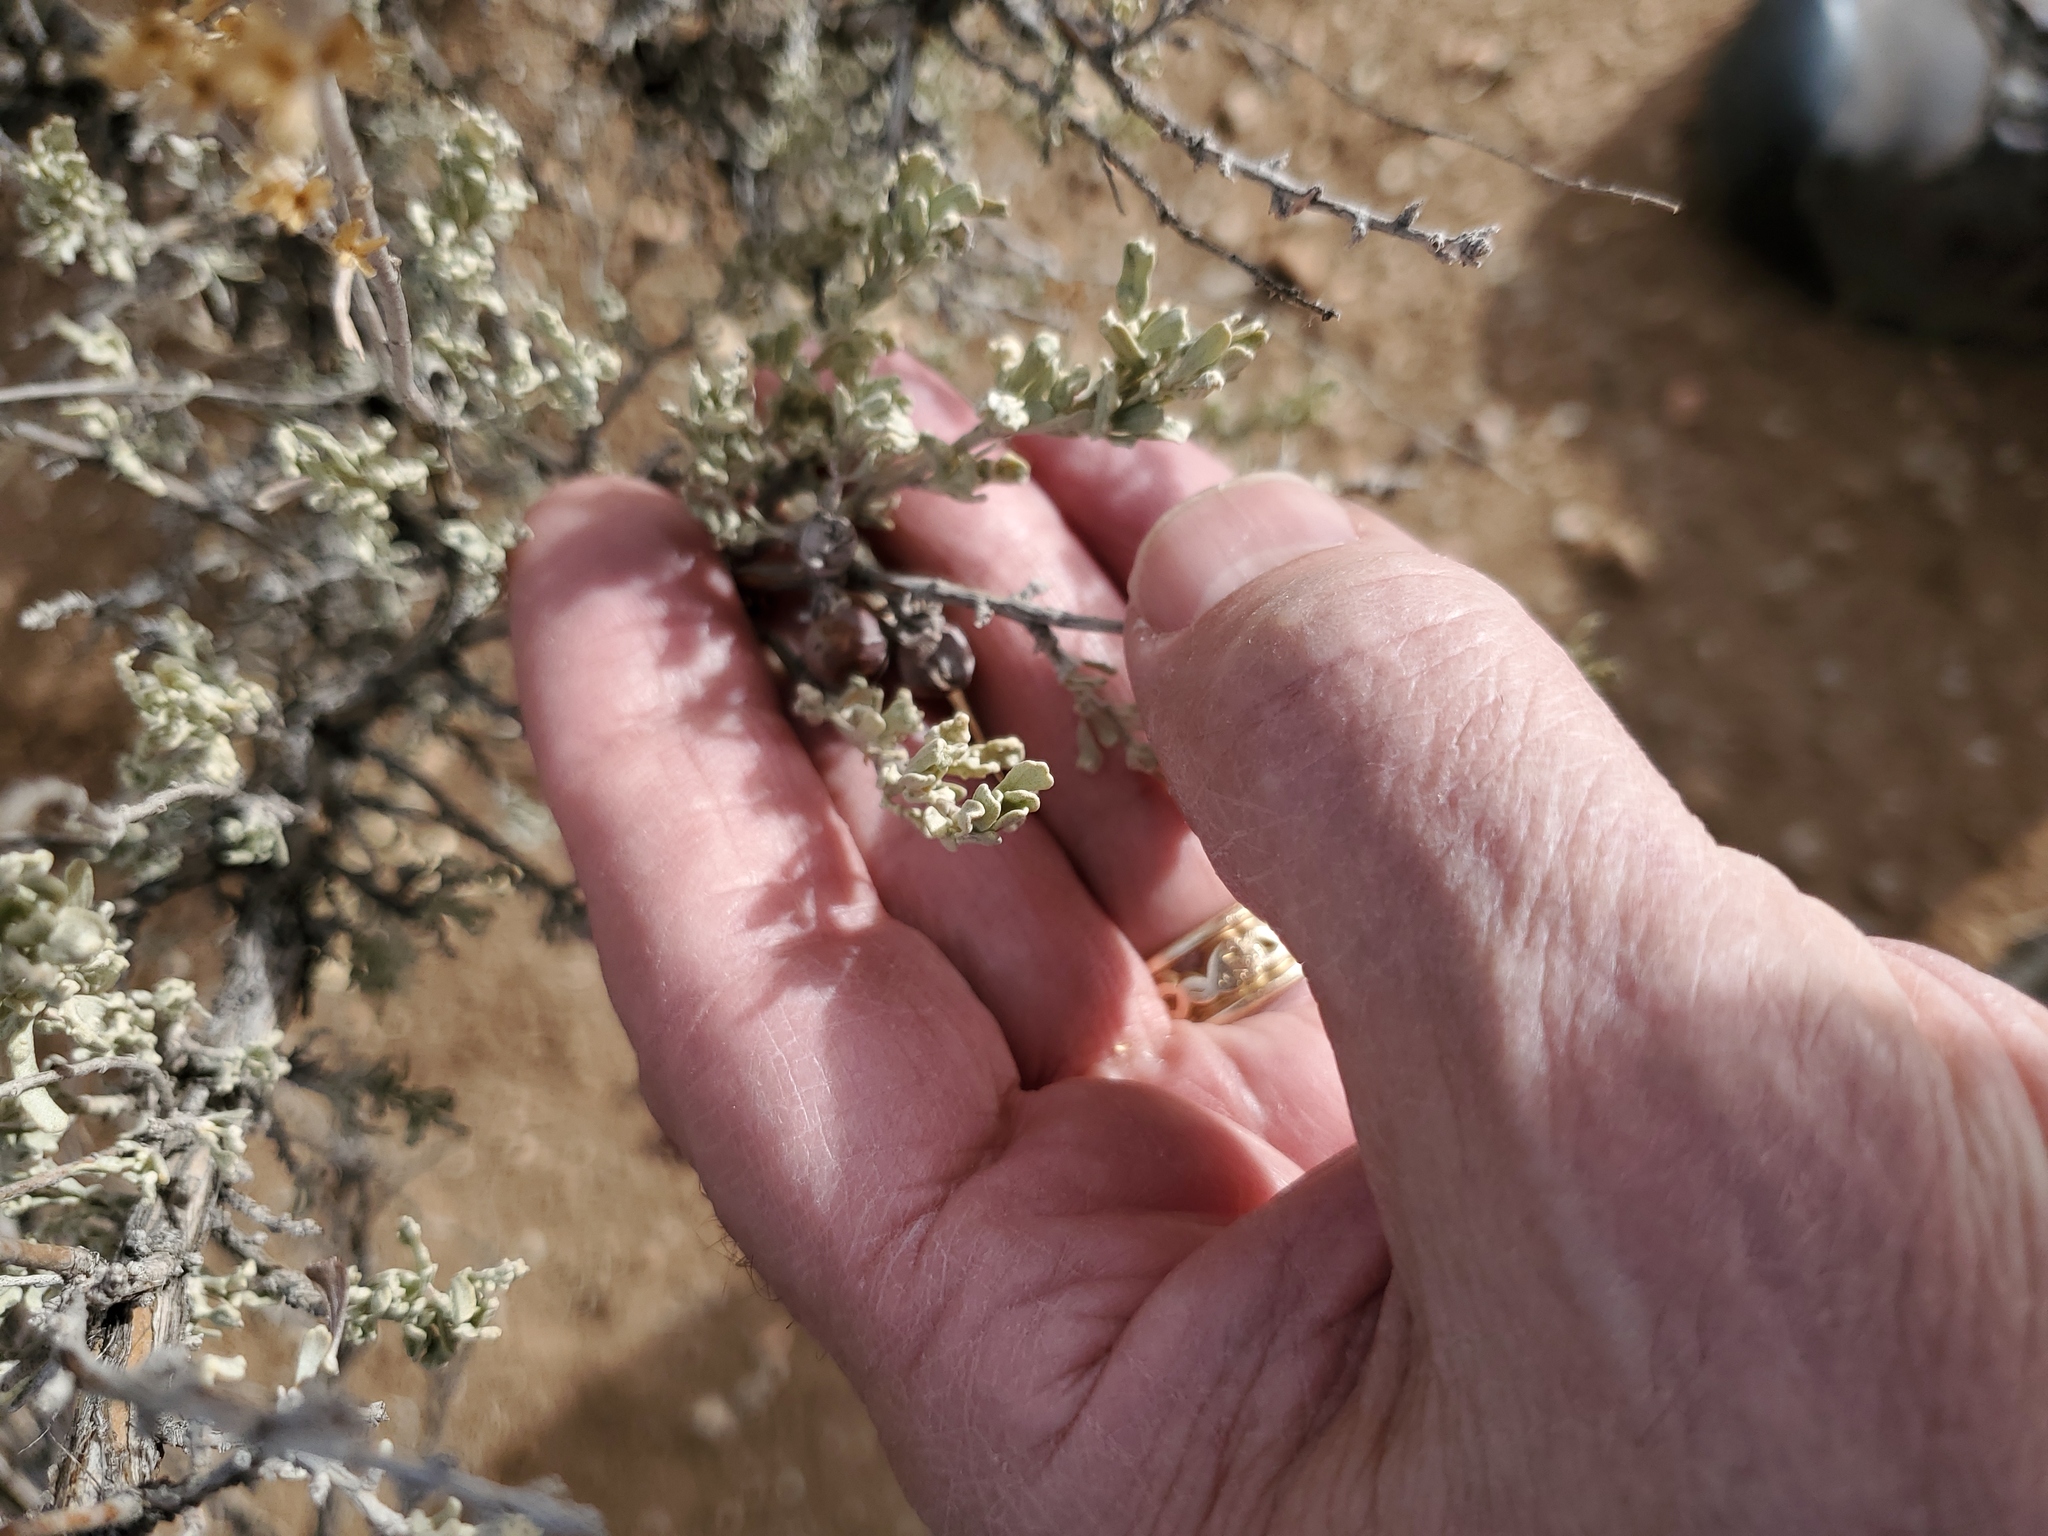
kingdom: Plantae
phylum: Tracheophyta
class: Magnoliopsida
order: Asterales
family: Asteraceae
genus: Artemisia
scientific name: Artemisia tridentata
